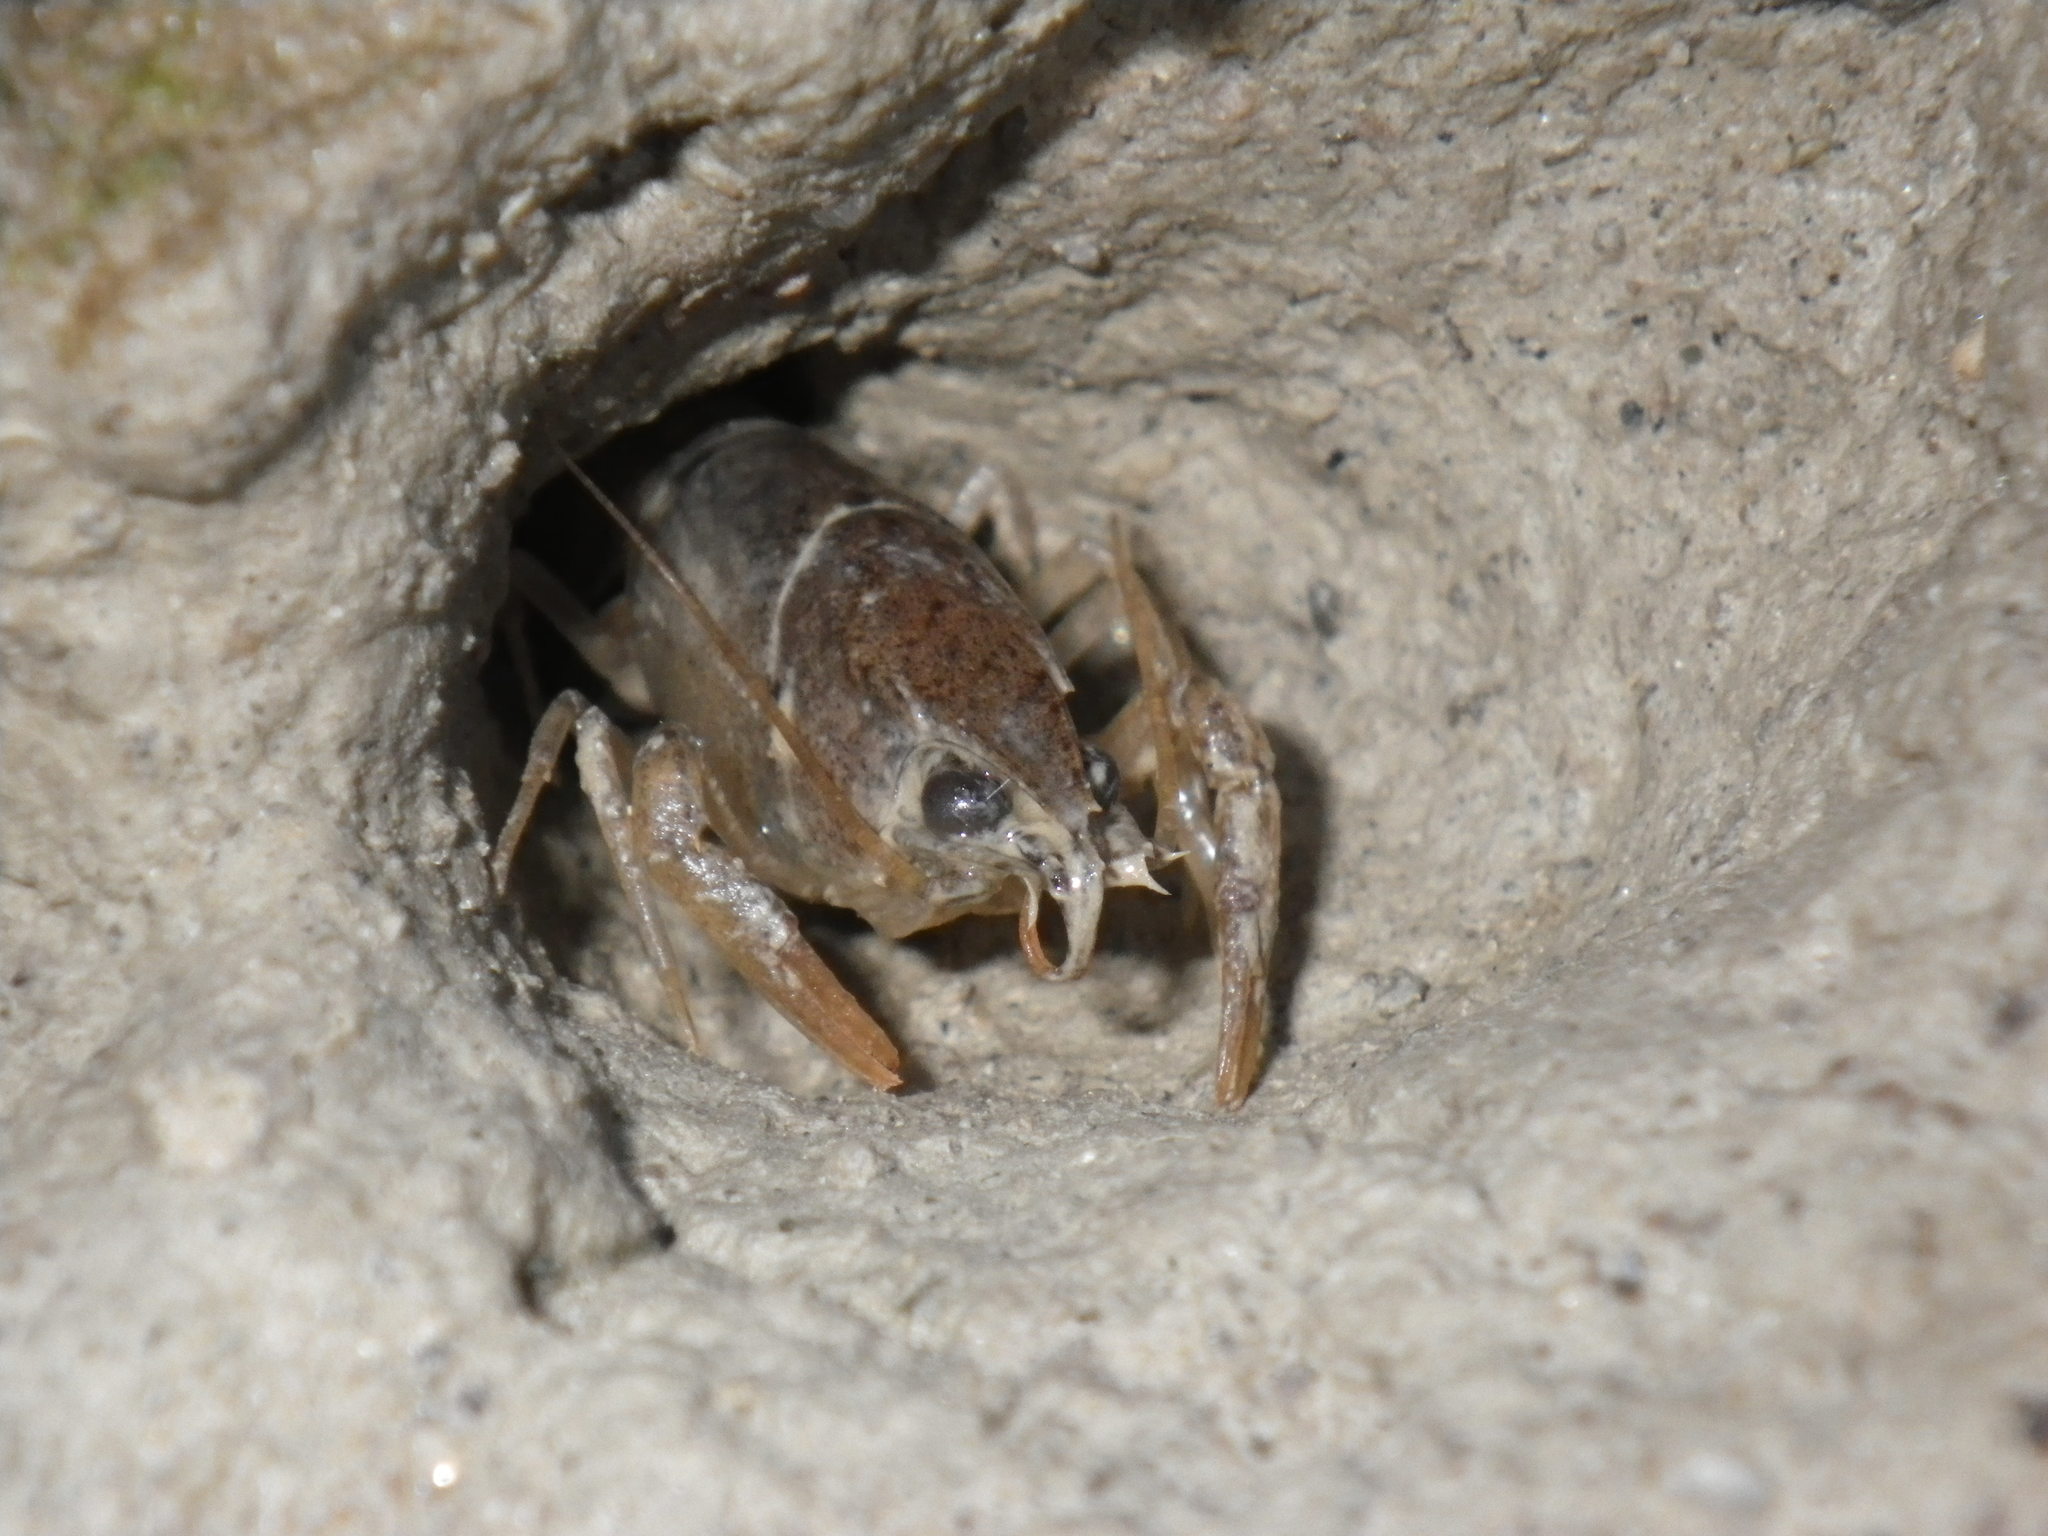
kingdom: Animalia
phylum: Arthropoda
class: Malacostraca
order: Decapoda
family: Astacidae
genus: Pacifastacus
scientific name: Pacifastacus leniusculus
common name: Signal crayfish
